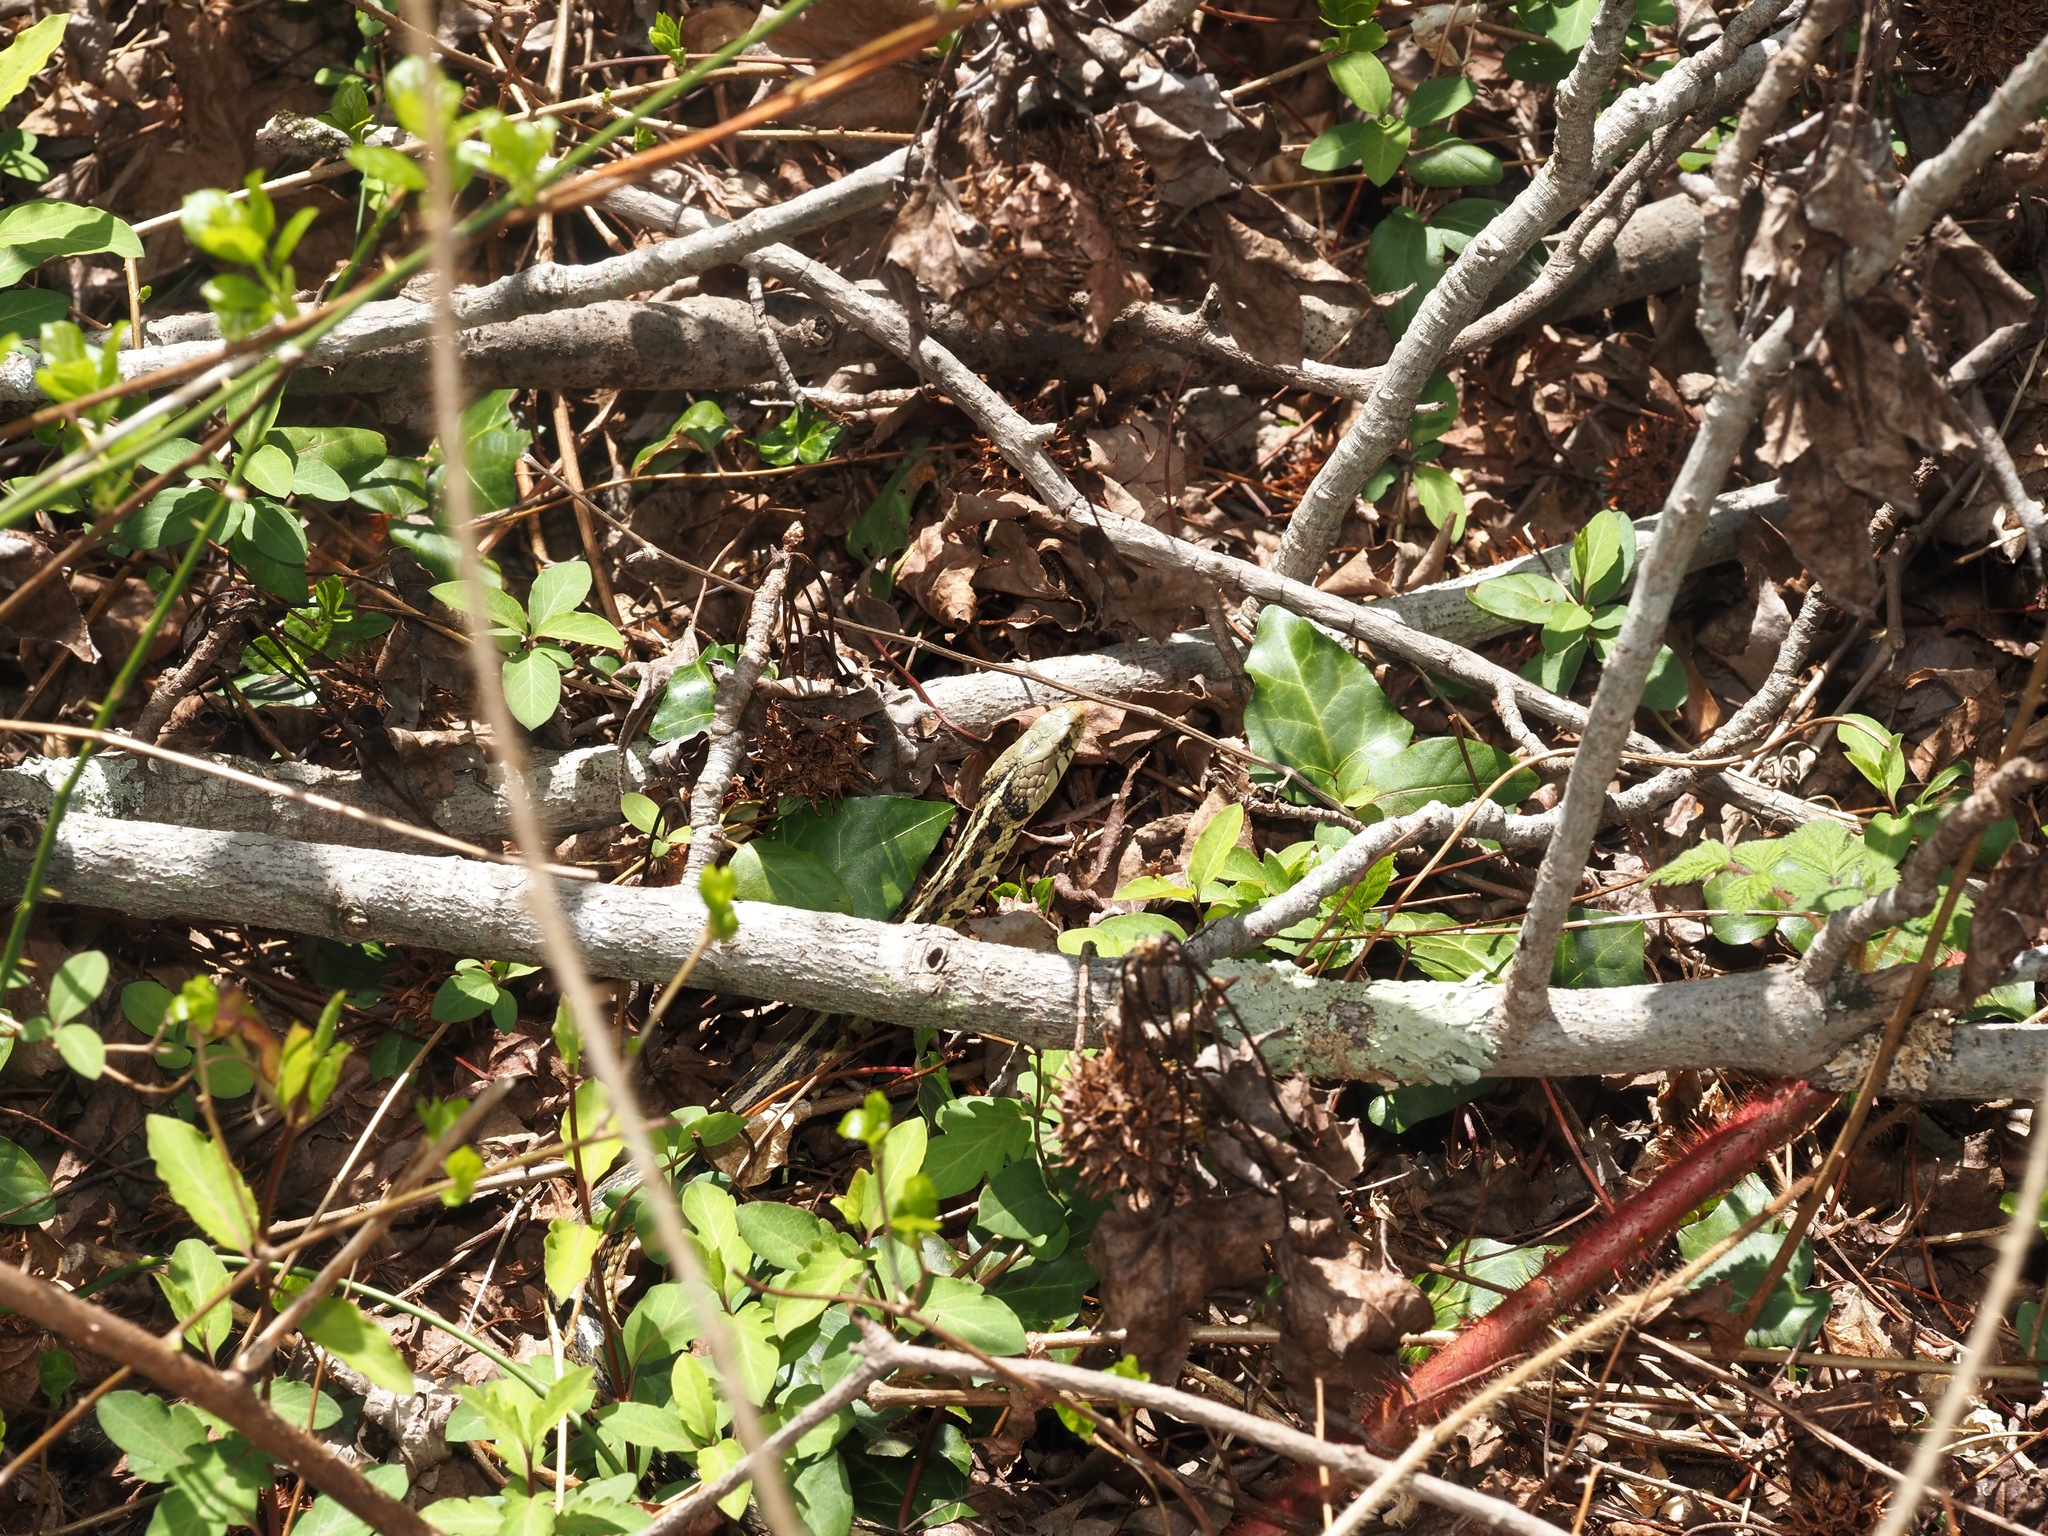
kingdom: Animalia
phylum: Chordata
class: Squamata
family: Colubridae
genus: Thamnophis
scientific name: Thamnophis sirtalis
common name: Common garter snake
